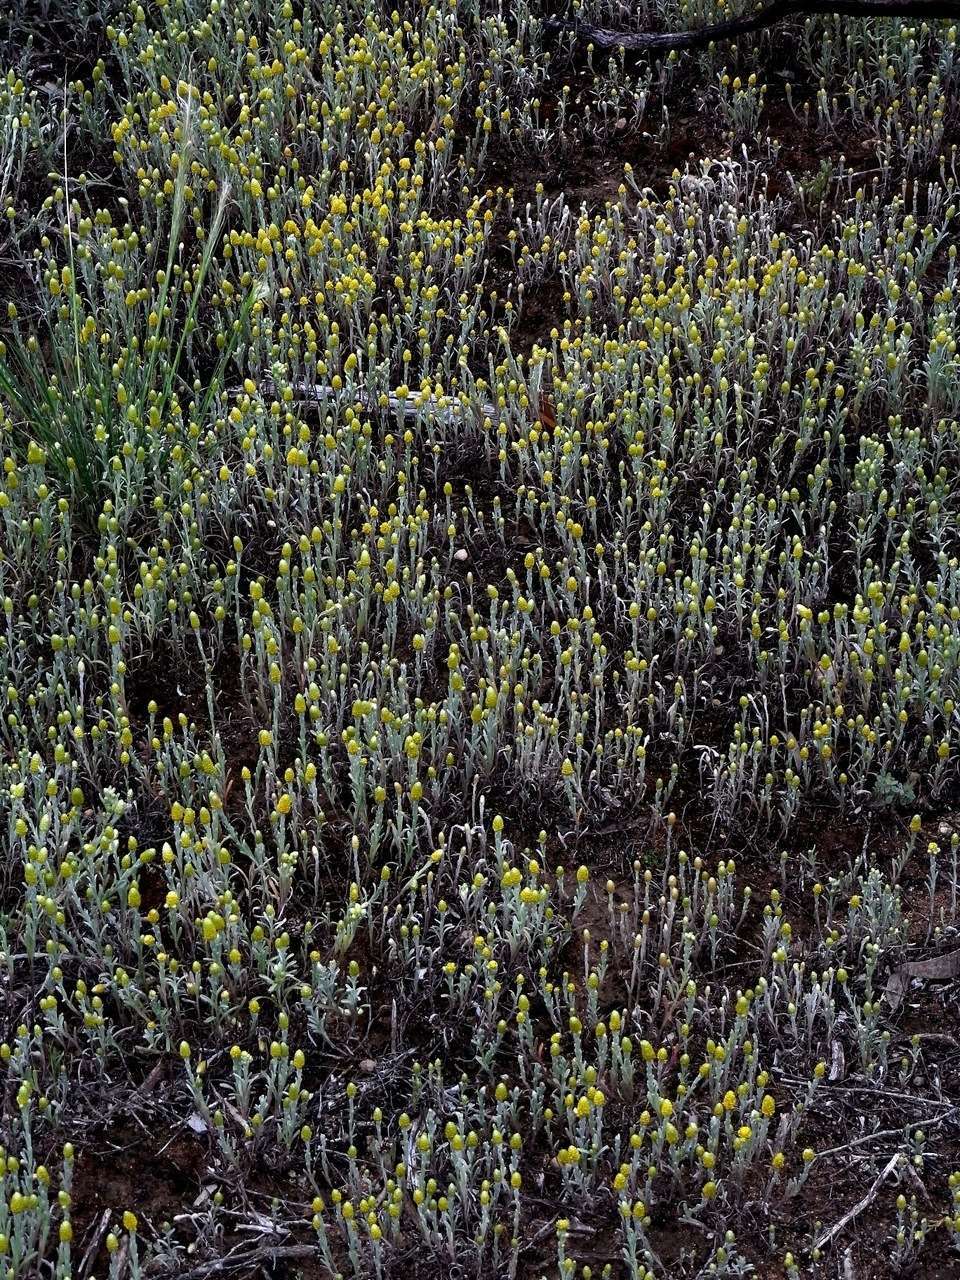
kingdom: Plantae
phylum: Tracheophyta
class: Magnoliopsida
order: Asterales
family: Asteraceae
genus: Siloxerus
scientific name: Siloxerus tomentosus
